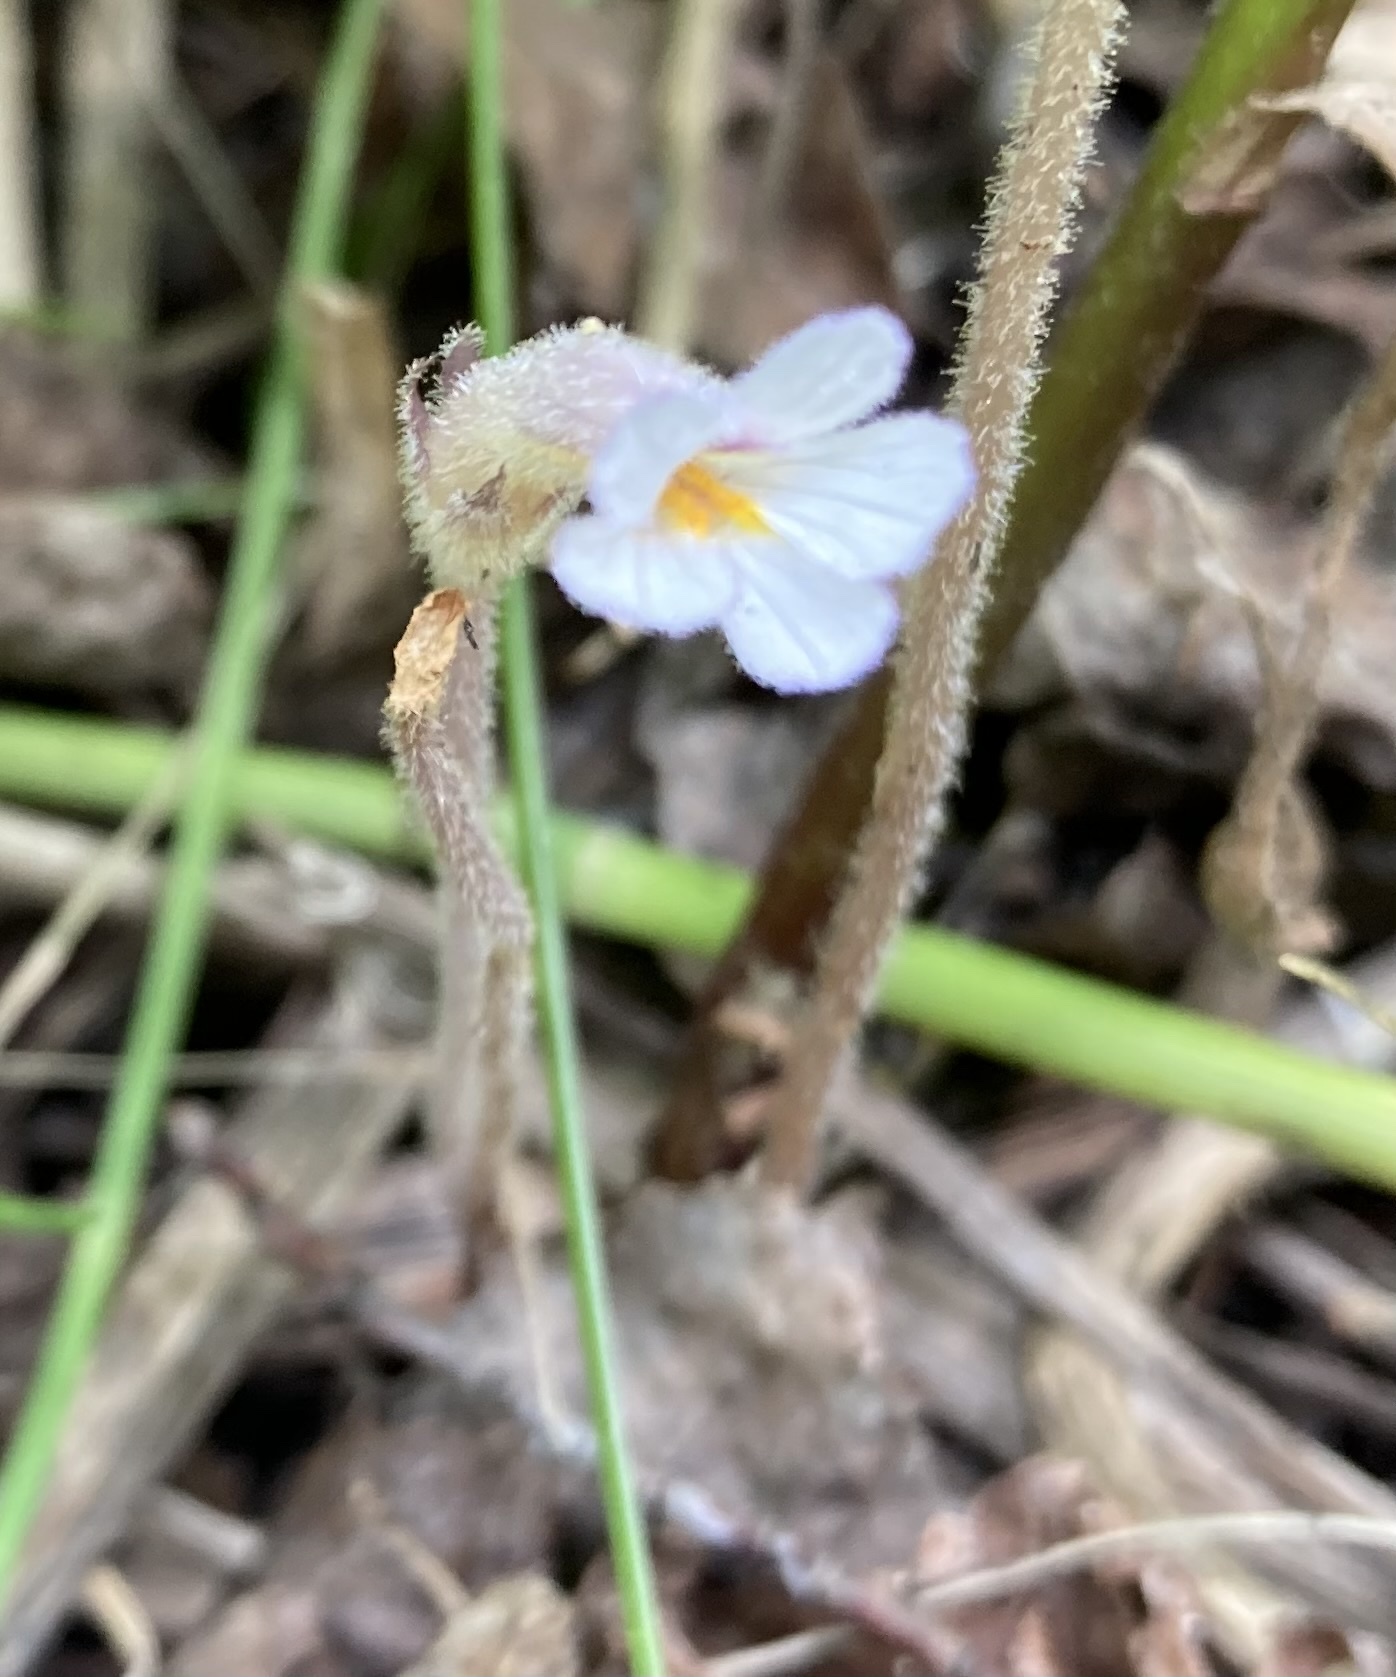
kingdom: Plantae
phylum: Tracheophyta
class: Magnoliopsida
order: Lamiales
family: Orobanchaceae
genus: Aphyllon
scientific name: Aphyllon uniflorum
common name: One-flowered broomrape
